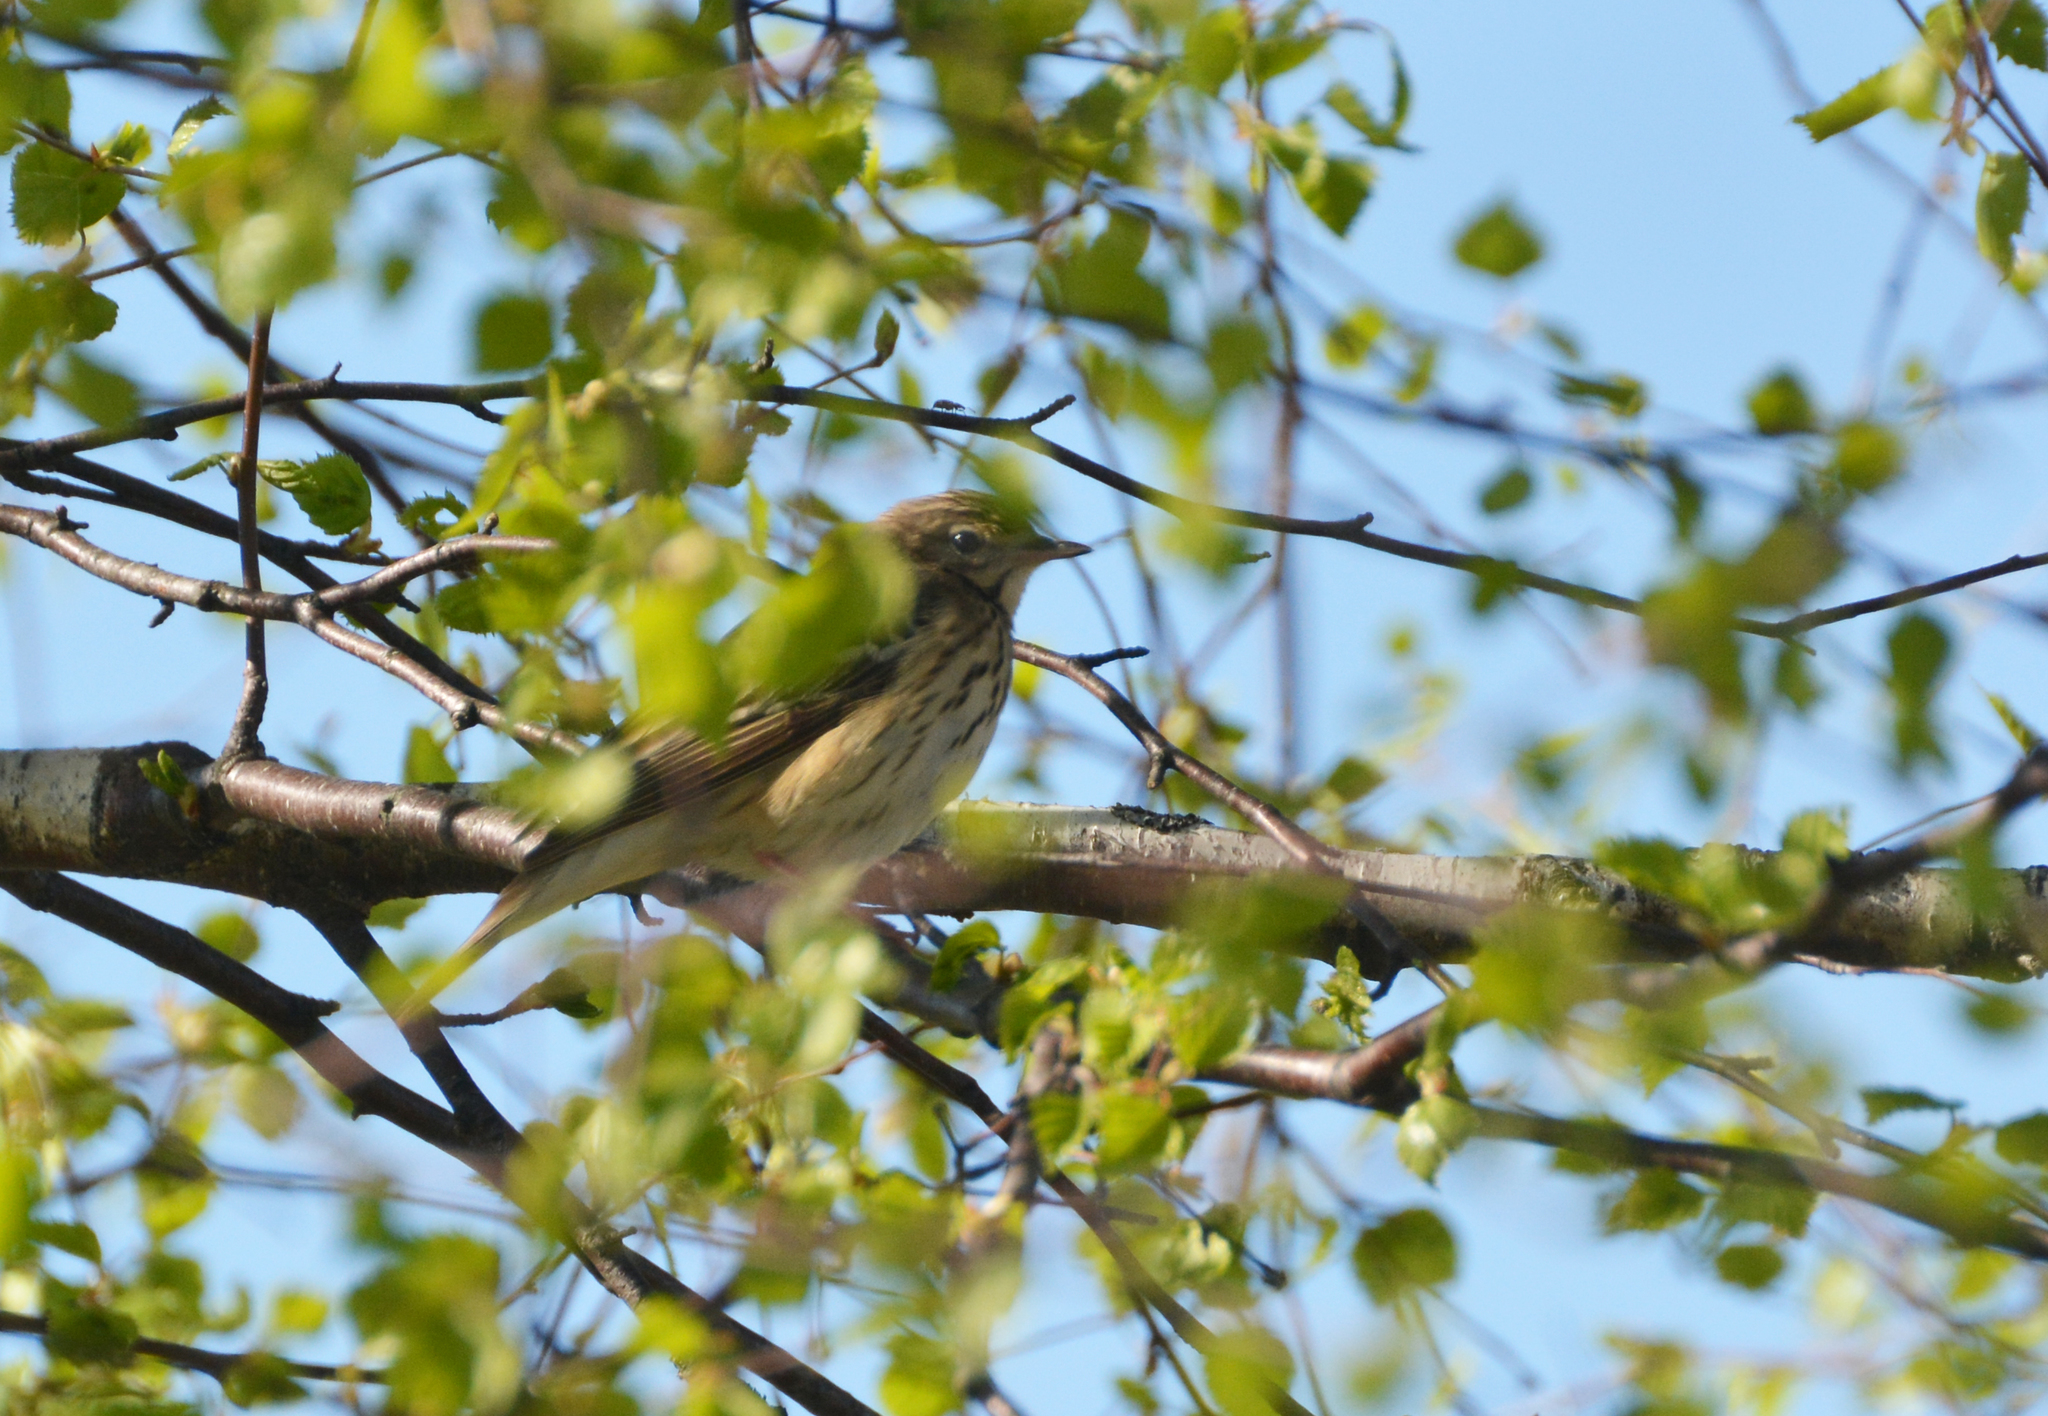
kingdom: Animalia
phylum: Chordata
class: Aves
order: Passeriformes
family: Motacillidae
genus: Anthus
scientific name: Anthus trivialis
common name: Tree pipit
